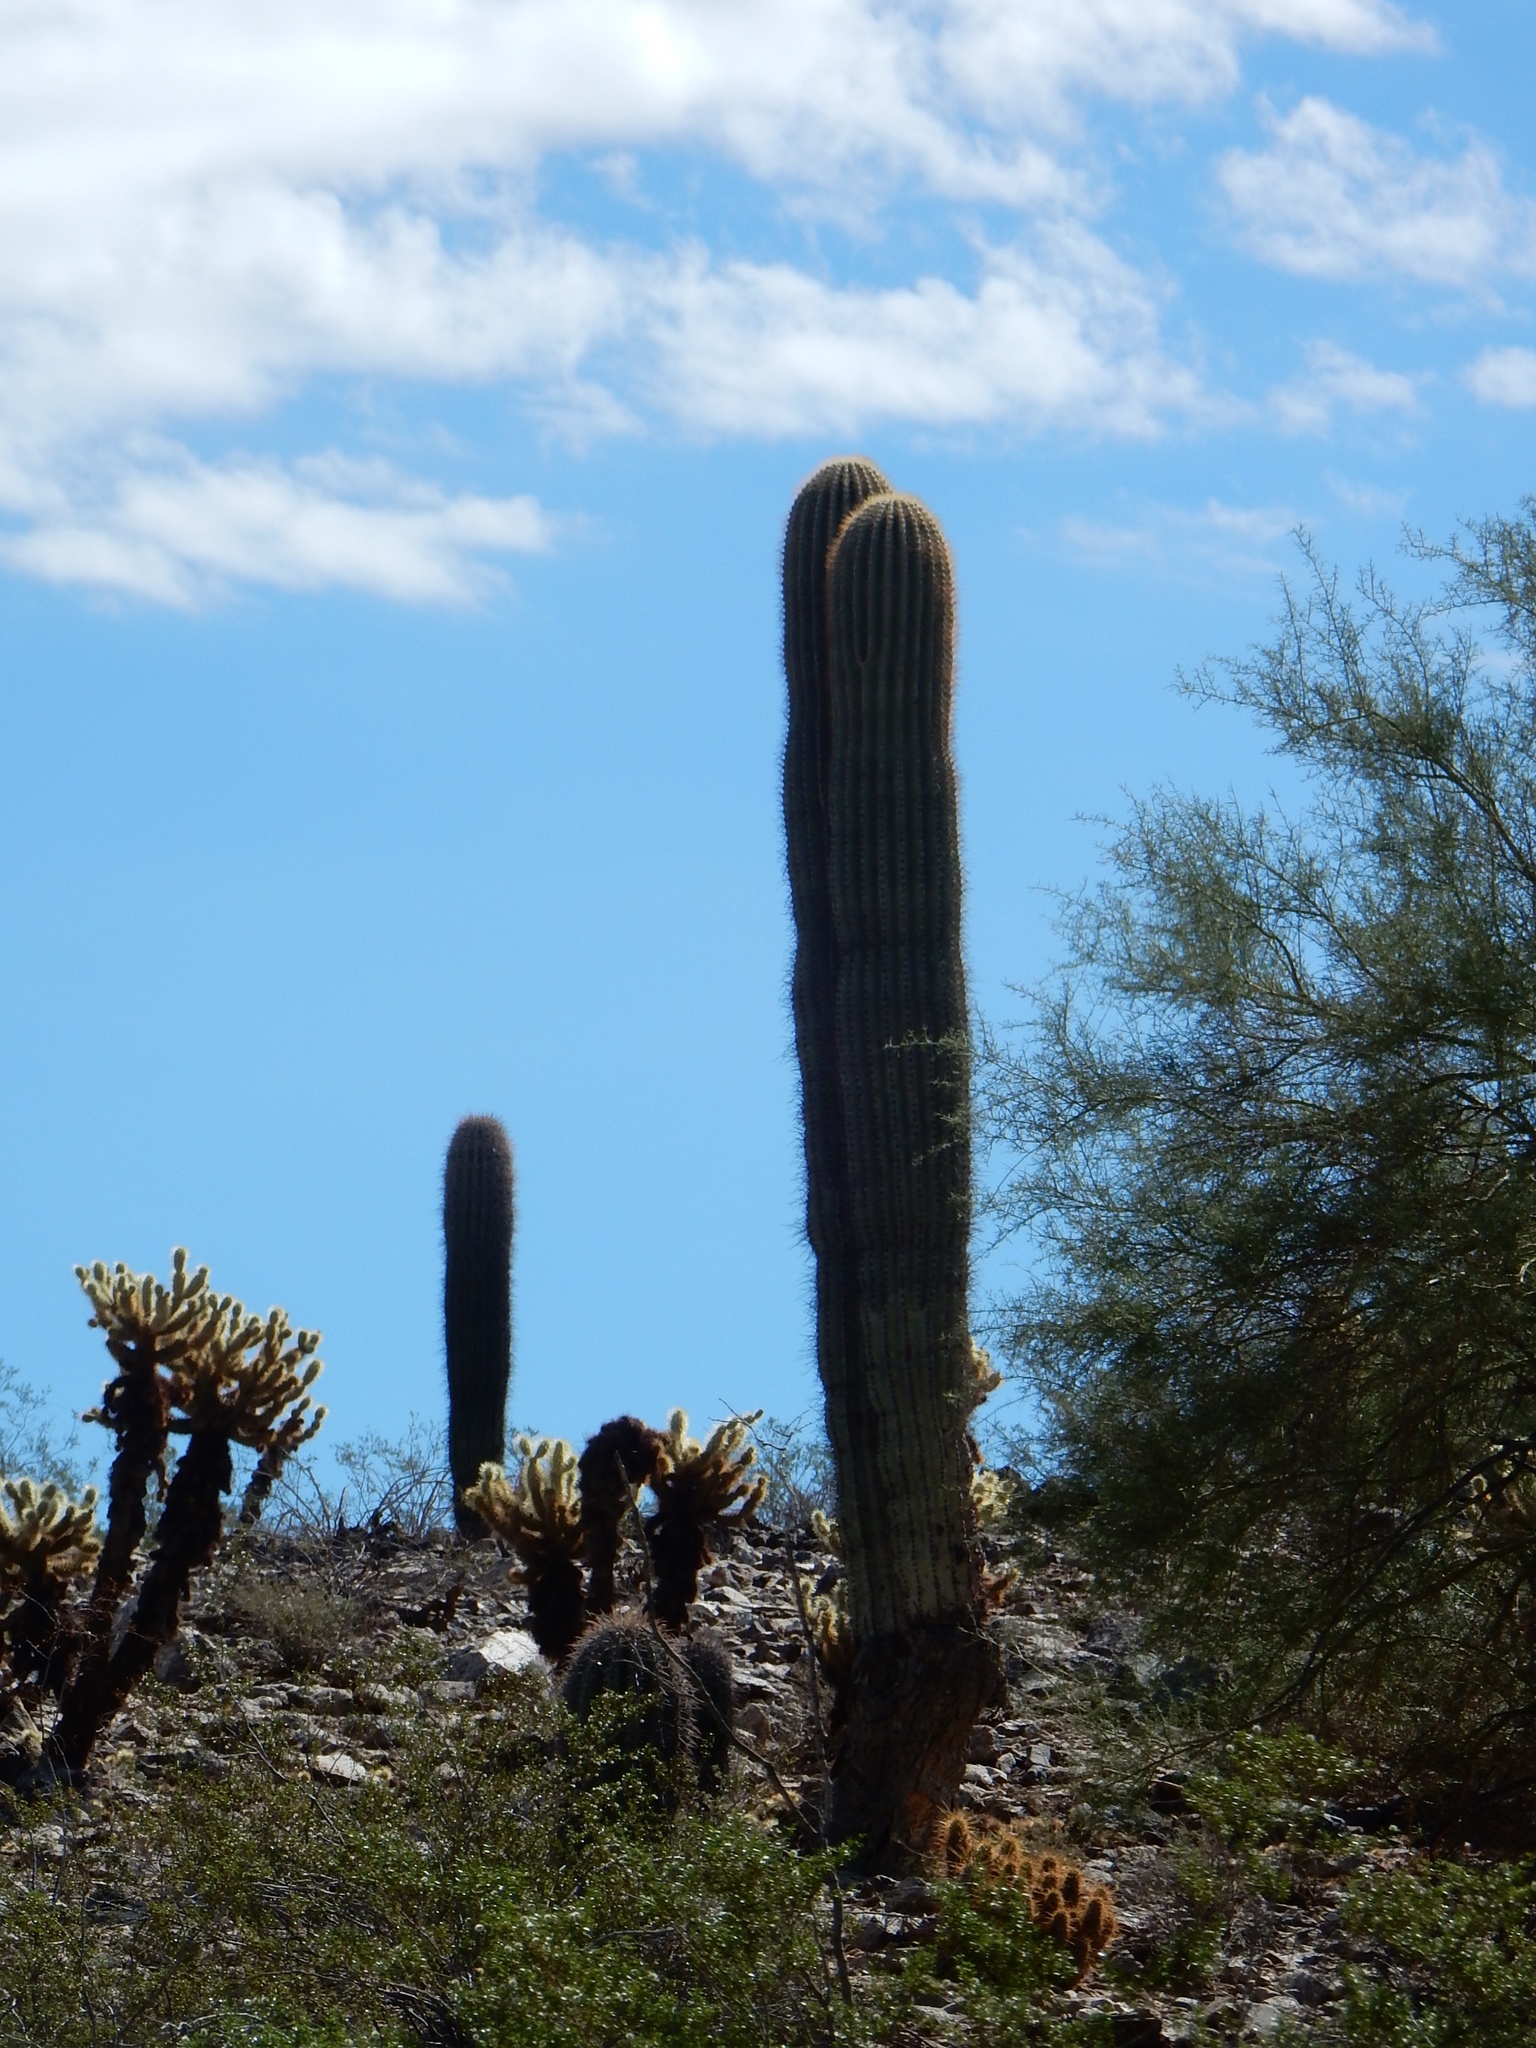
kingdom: Plantae
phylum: Tracheophyta
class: Magnoliopsida
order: Caryophyllales
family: Cactaceae
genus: Carnegiea
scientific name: Carnegiea gigantea
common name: Saguaro
